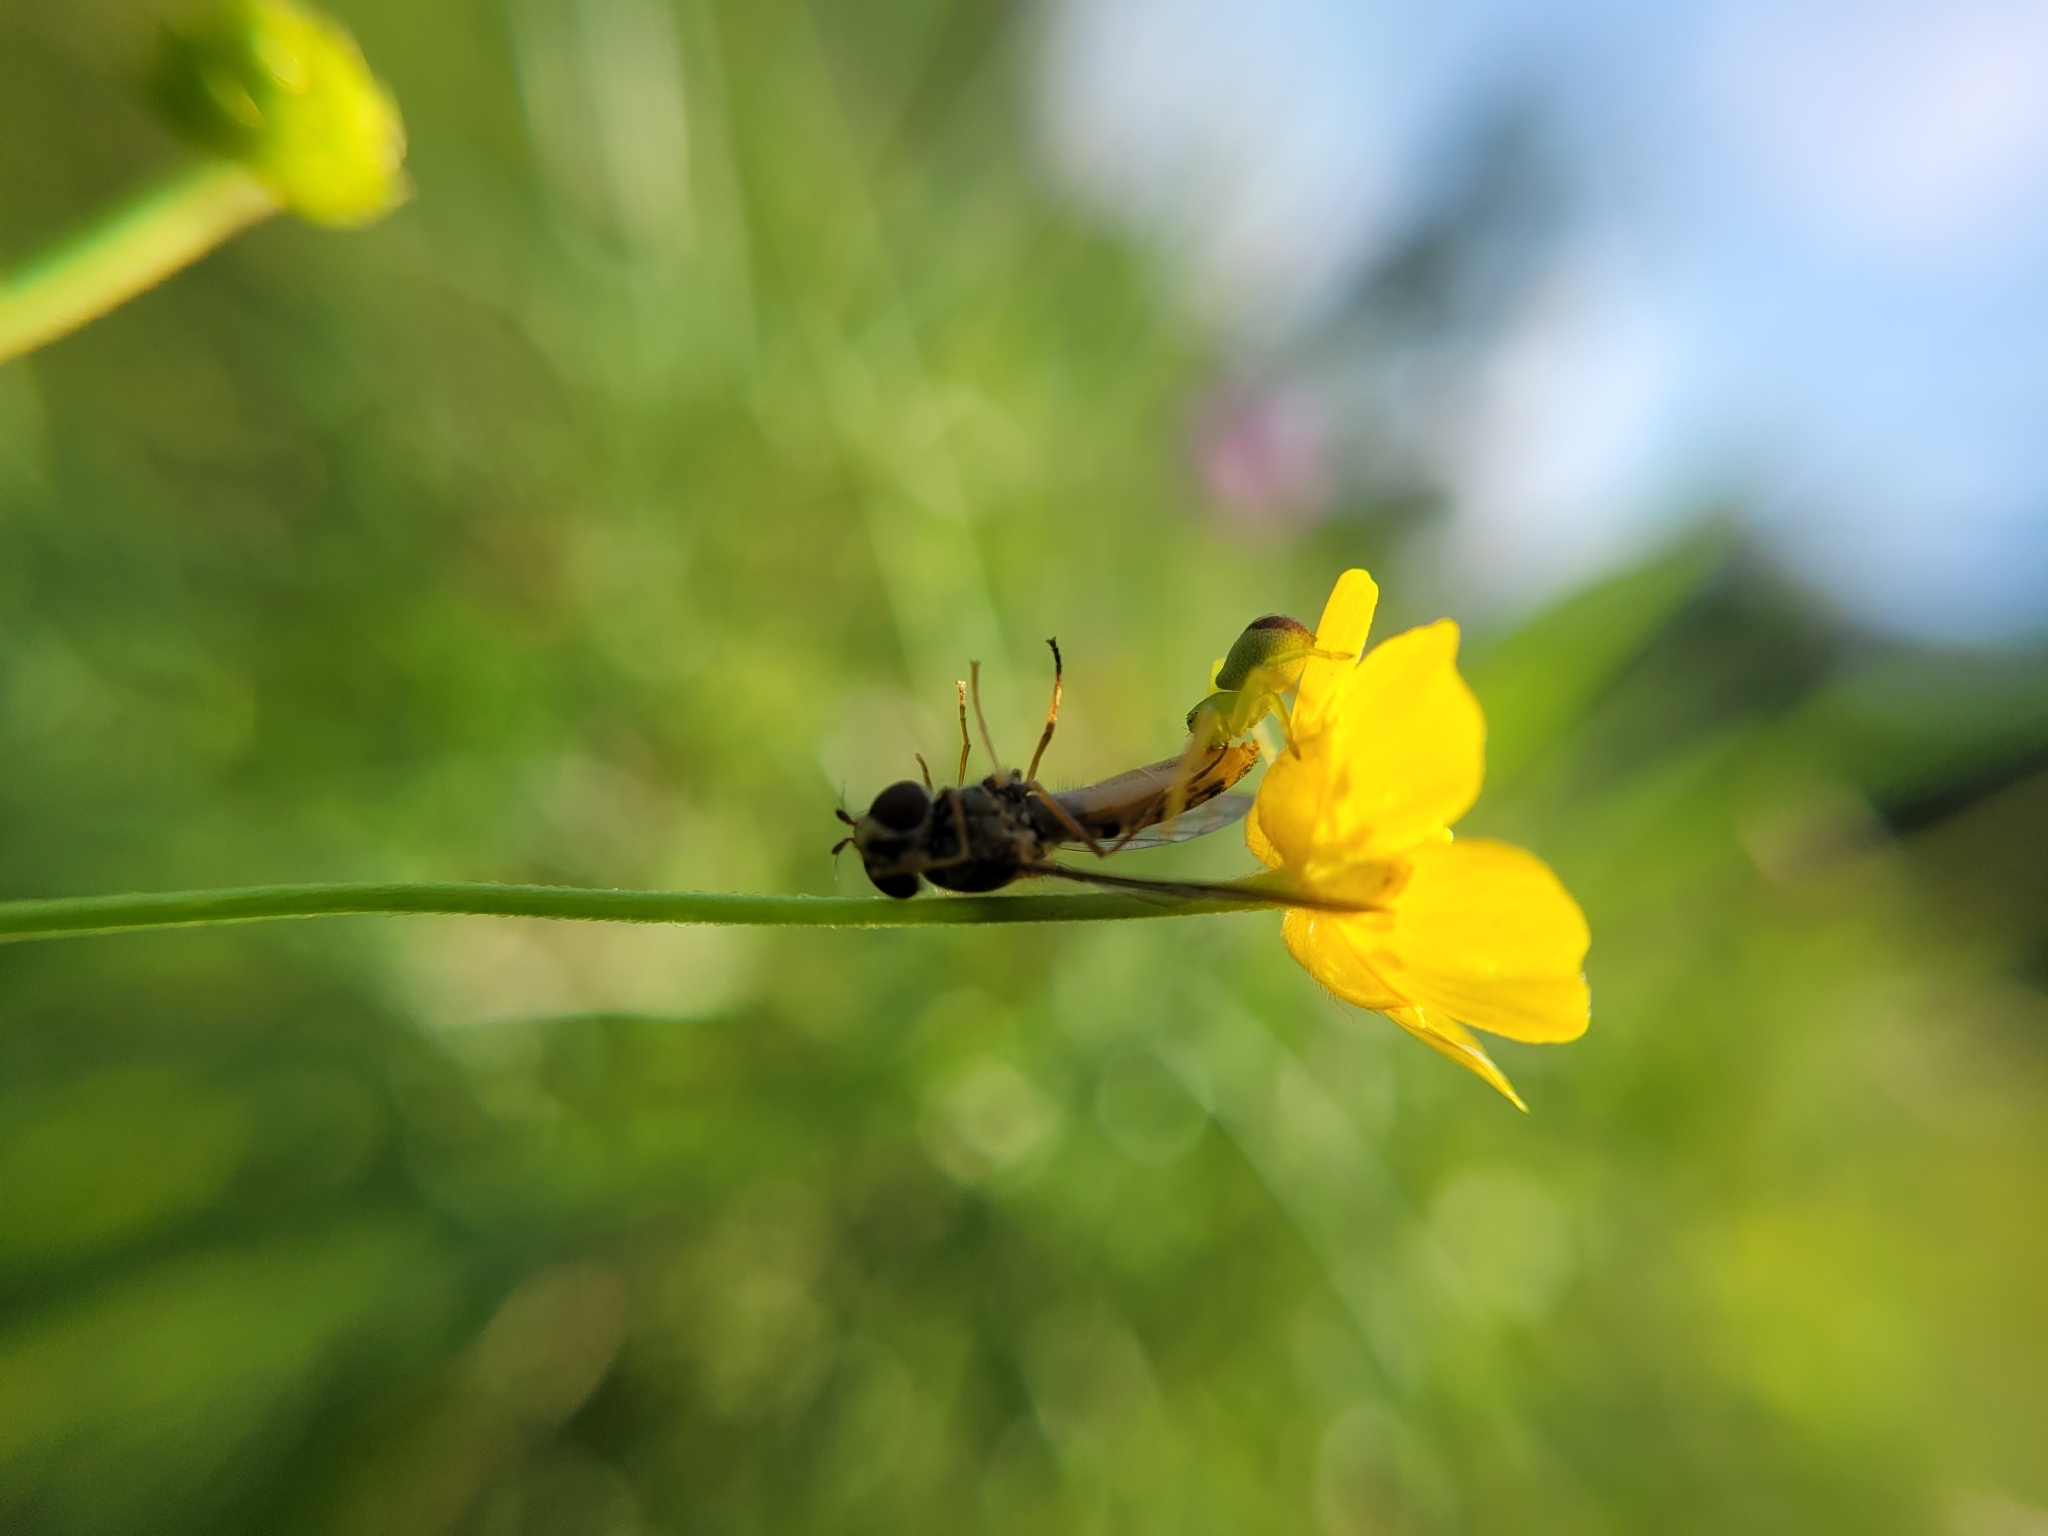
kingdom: Animalia
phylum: Arthropoda
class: Arachnida
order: Araneae
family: Thomisidae
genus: Ebrechtella
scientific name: Ebrechtella tricuspidata
